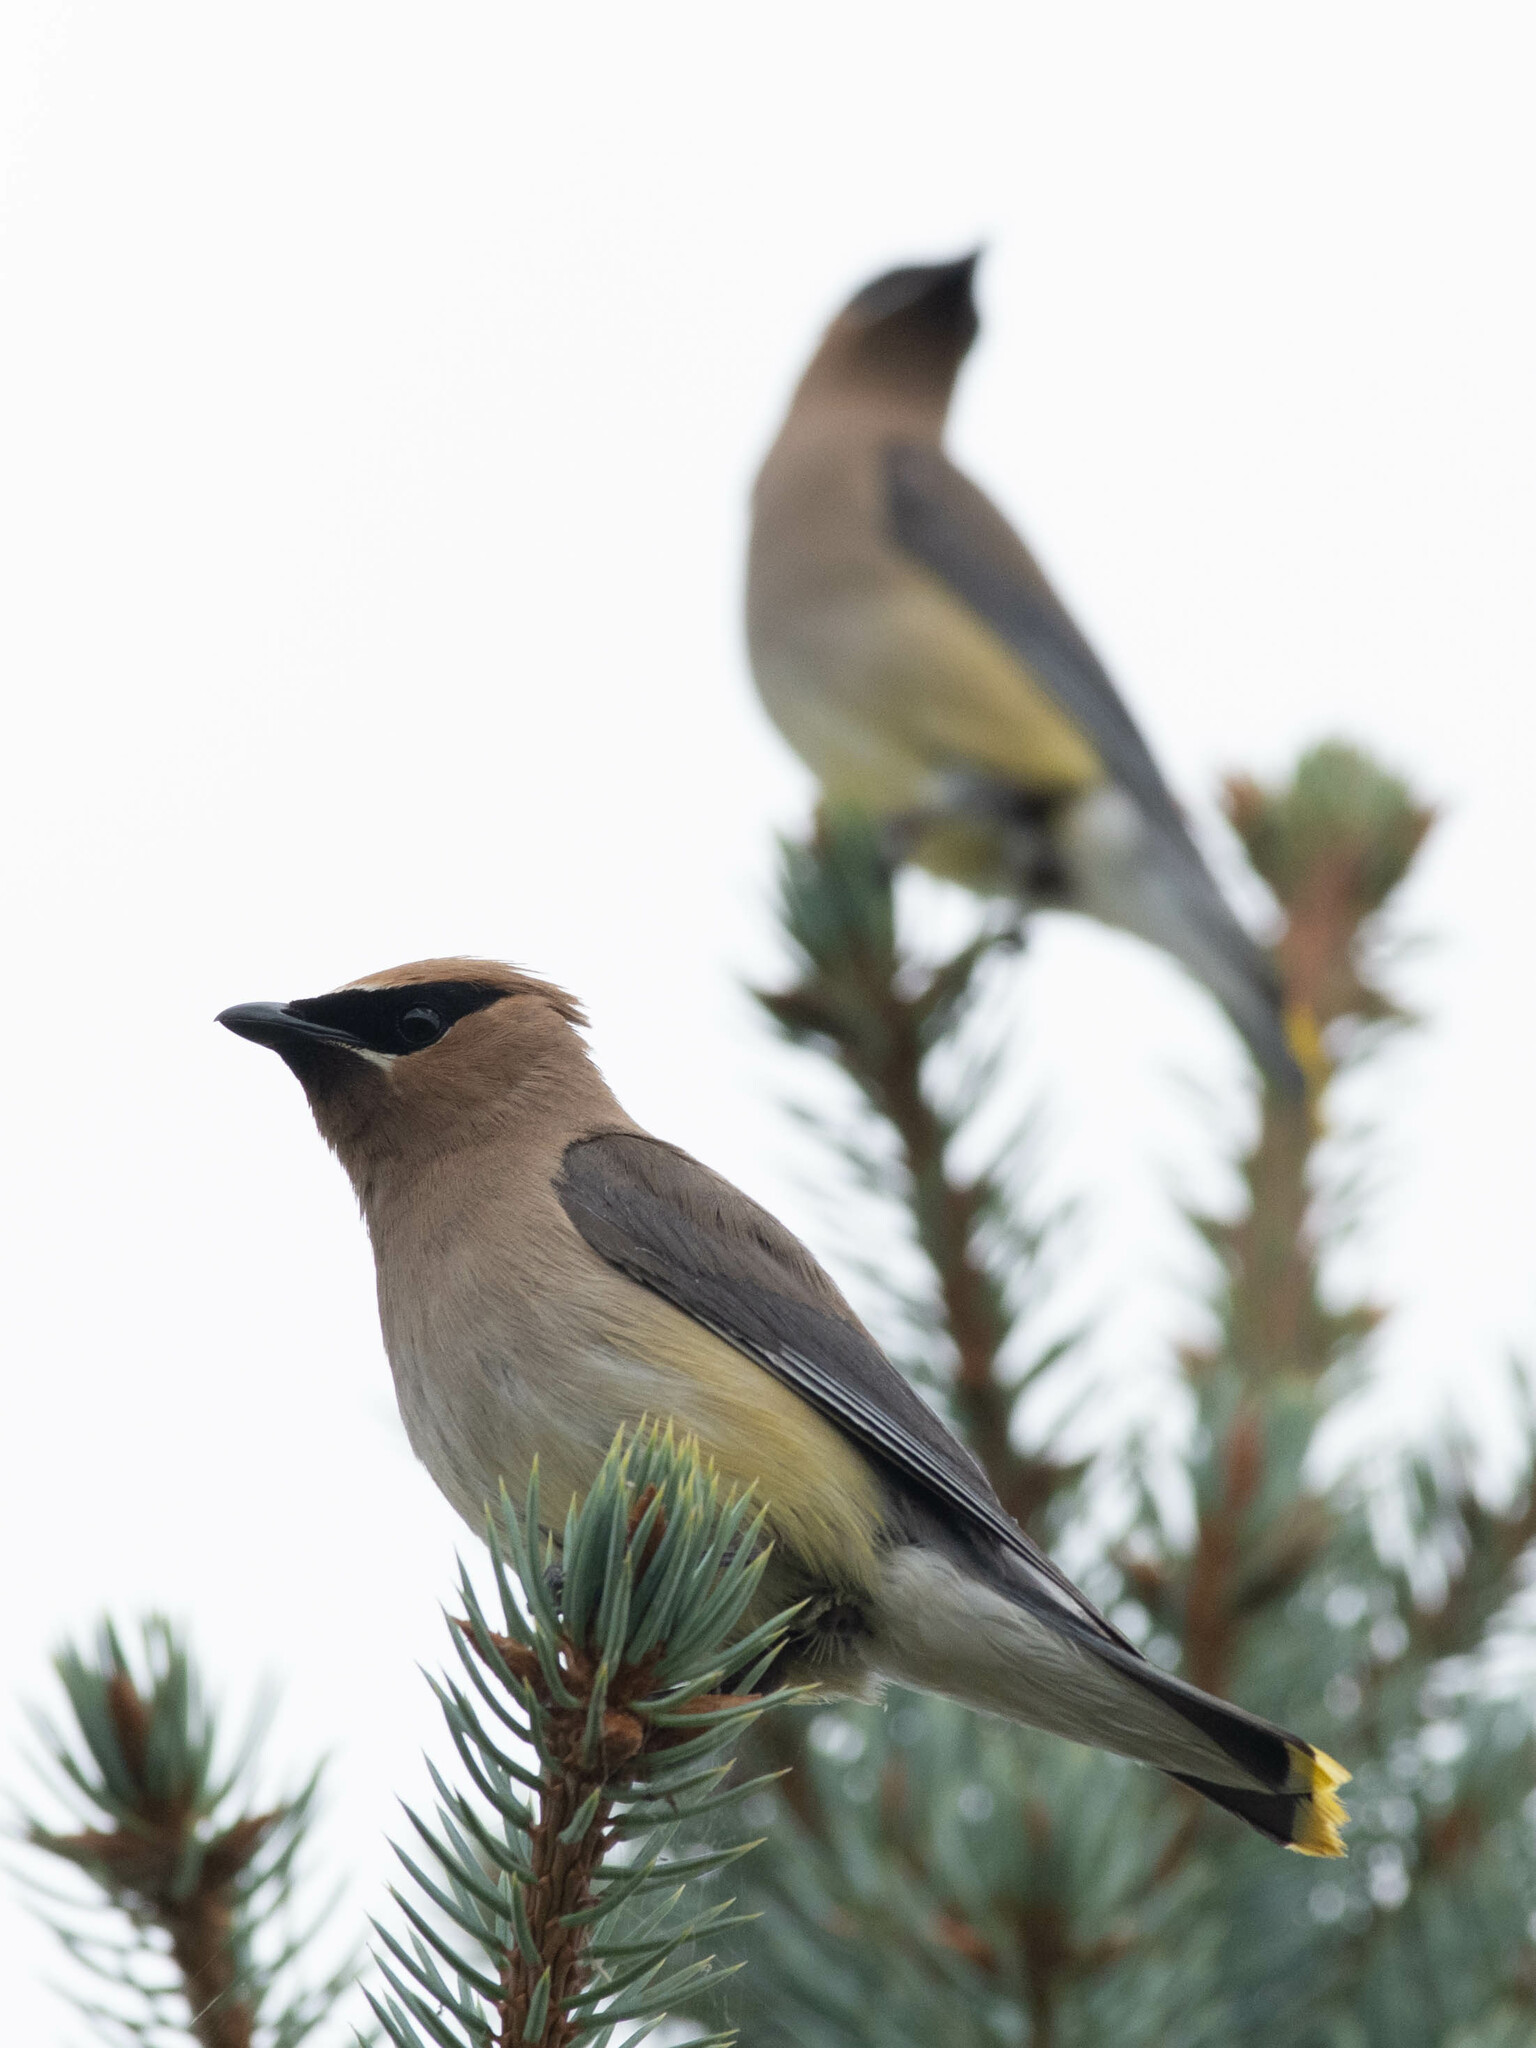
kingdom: Animalia
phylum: Chordata
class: Aves
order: Passeriformes
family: Bombycillidae
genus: Bombycilla
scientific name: Bombycilla cedrorum
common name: Cedar waxwing
